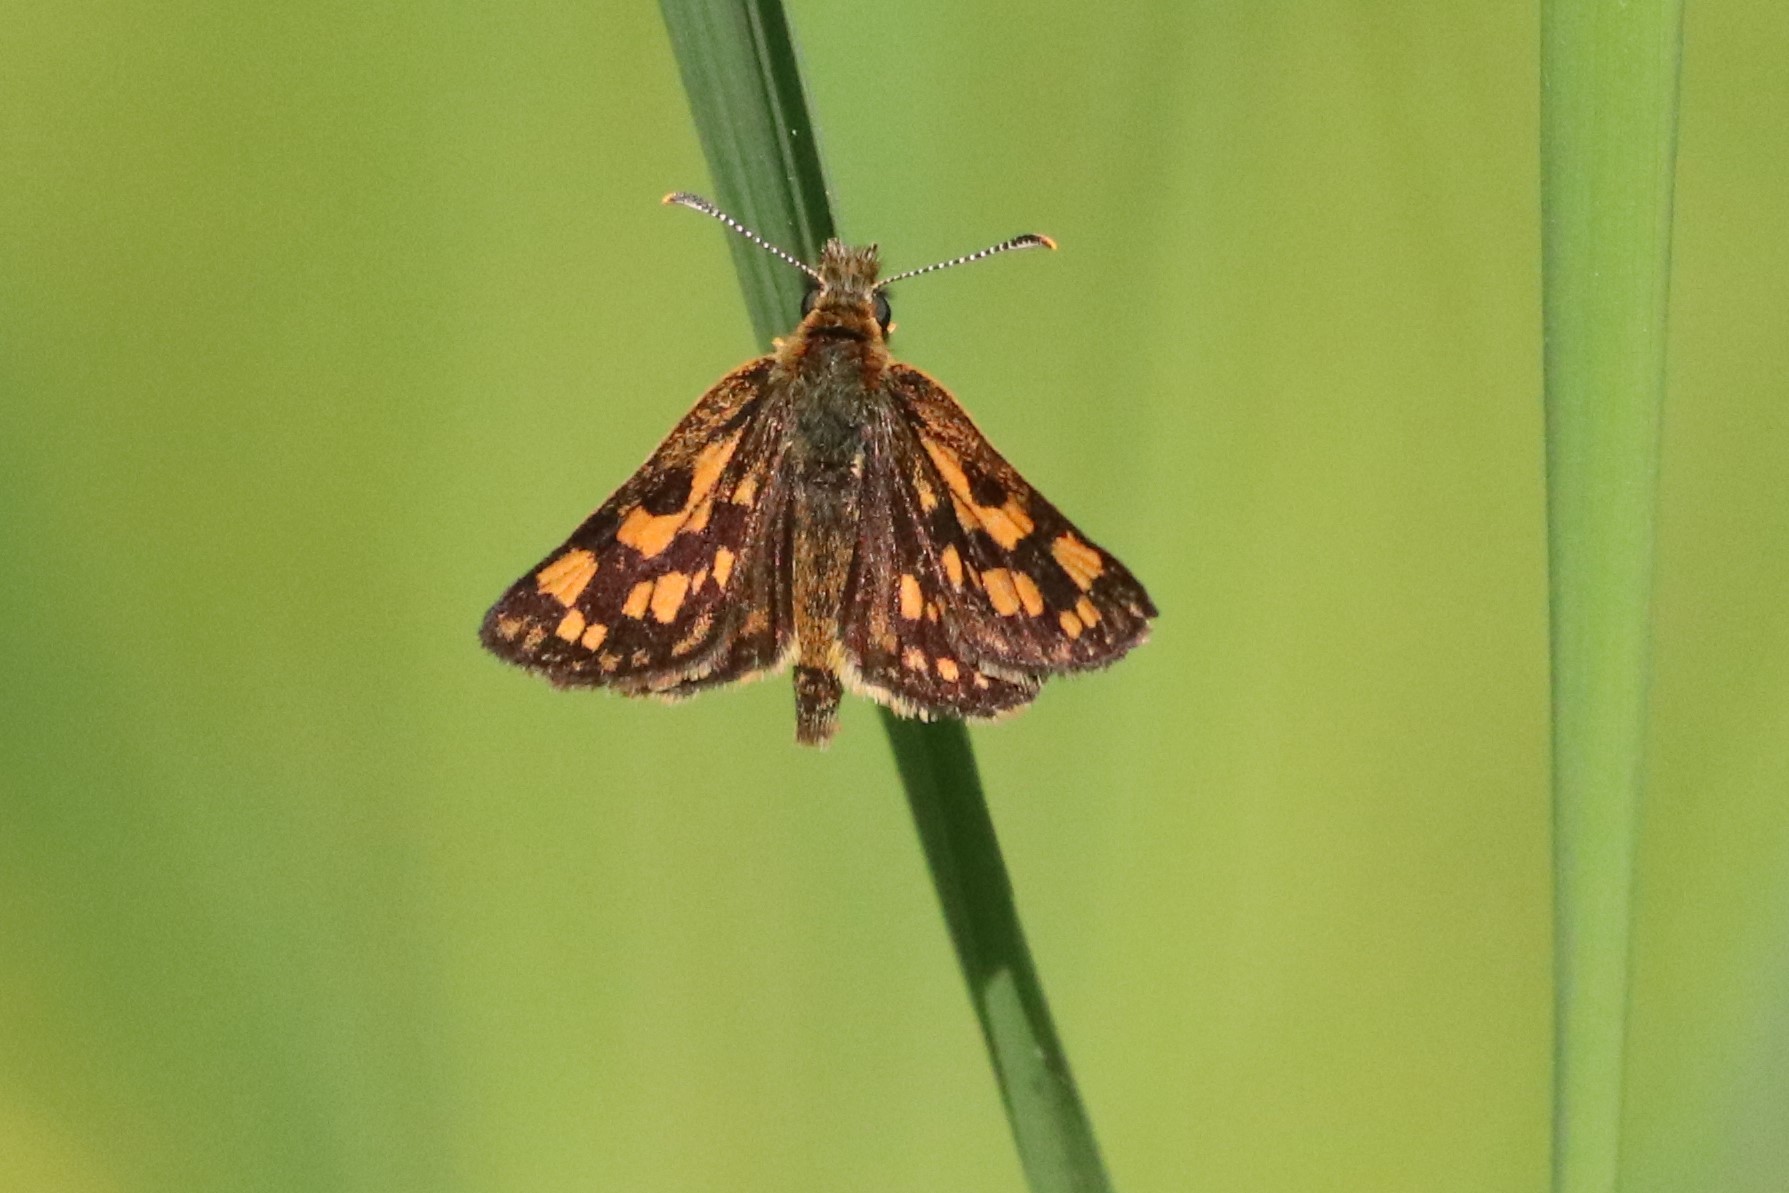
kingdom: Animalia
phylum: Arthropoda
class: Insecta
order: Lepidoptera
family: Hesperiidae
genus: Carterocephalus
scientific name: Carterocephalus mandan
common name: Arctic skipperling
